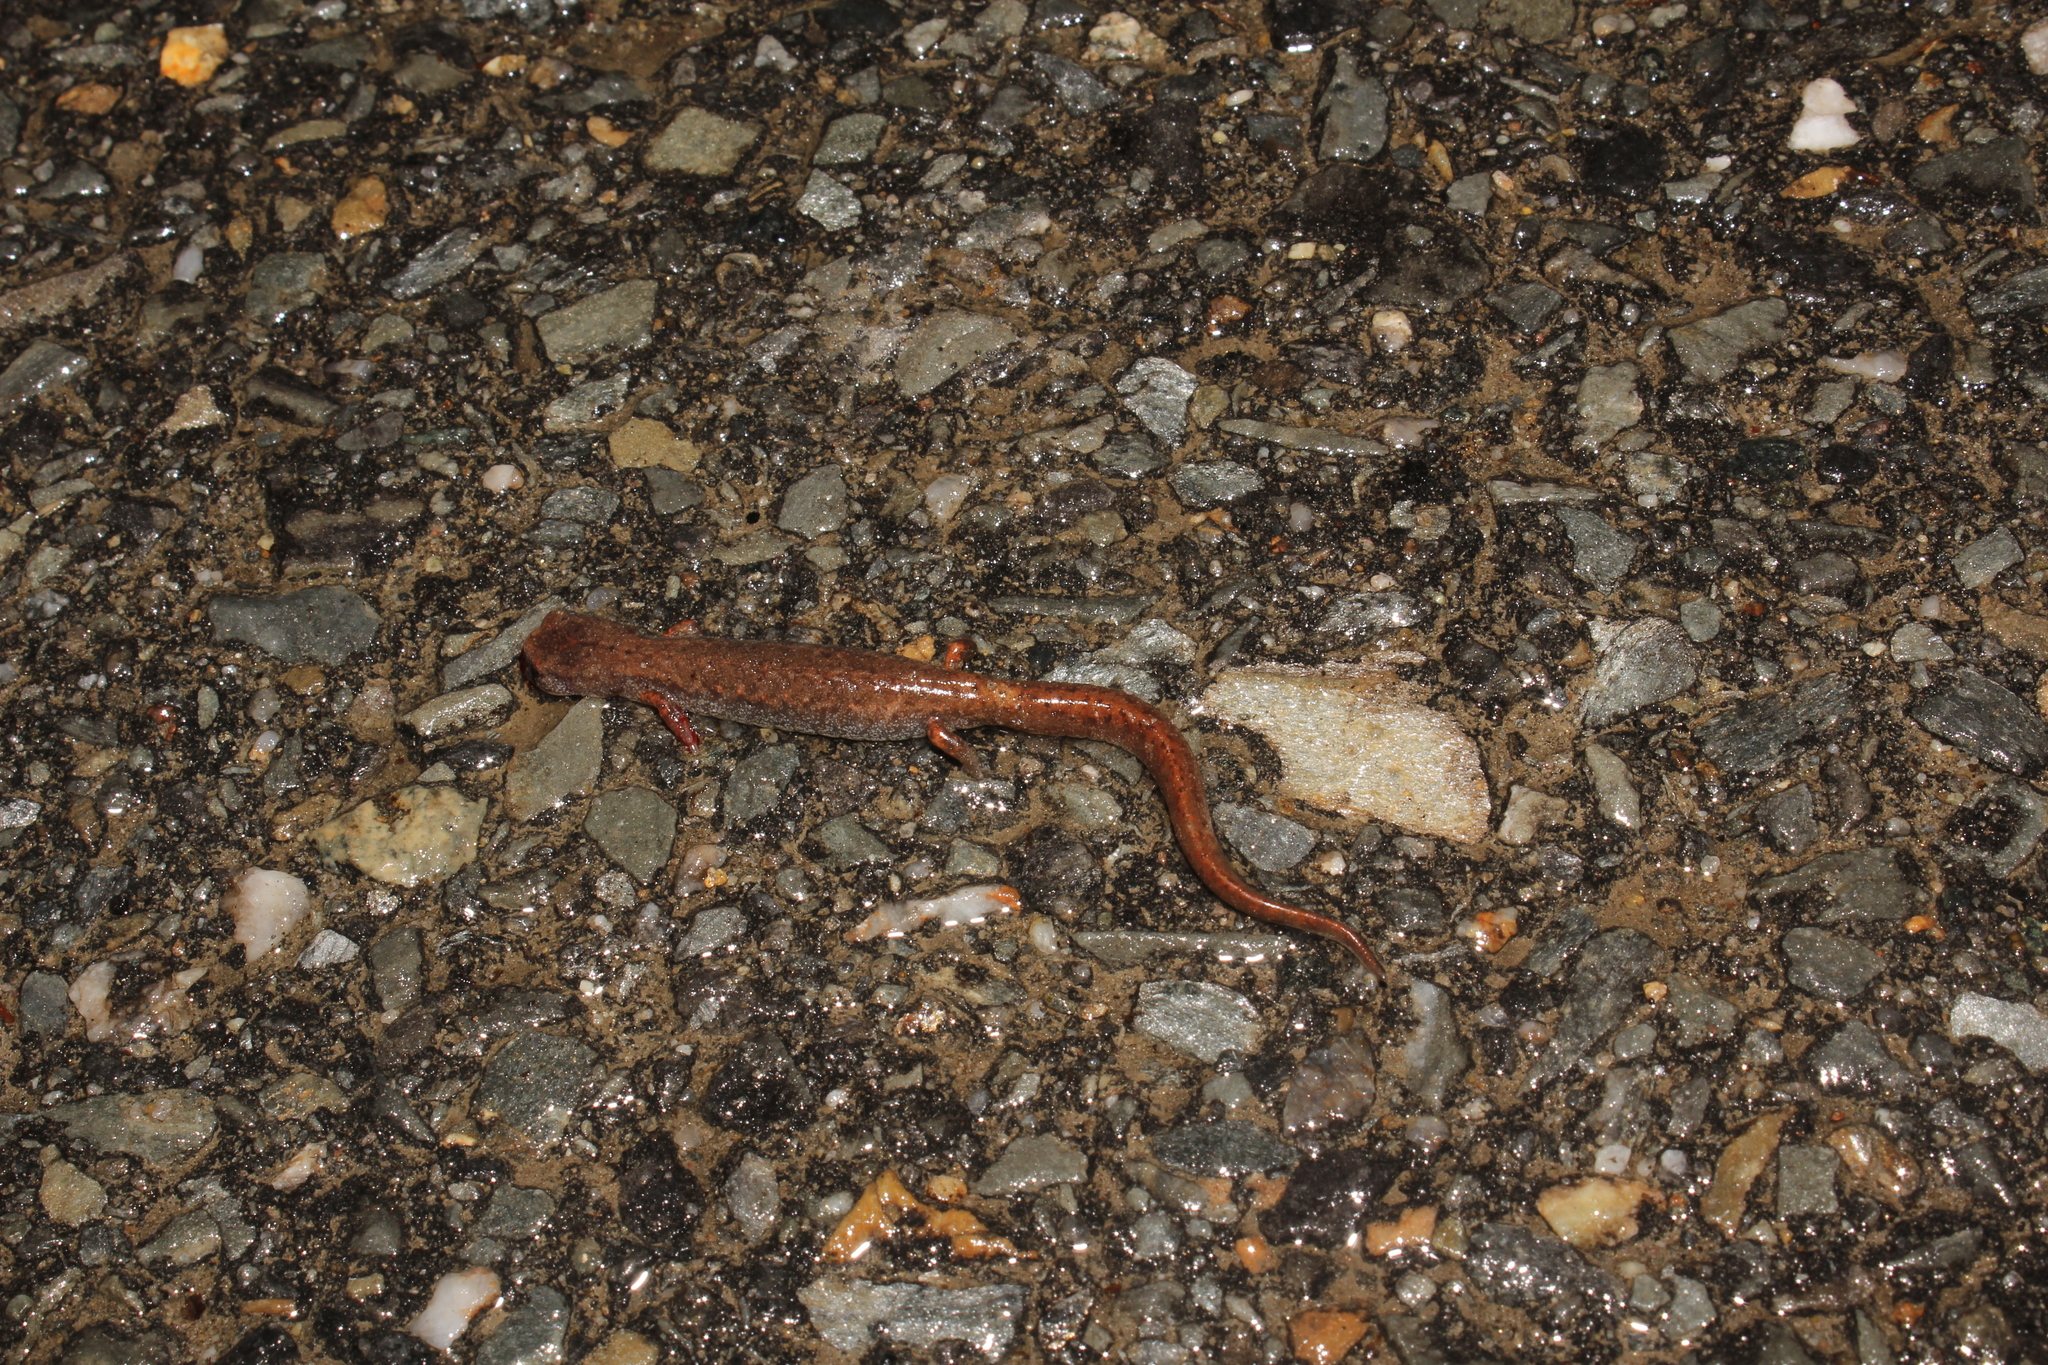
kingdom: Animalia
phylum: Chordata
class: Amphibia
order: Caudata
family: Plethodontidae
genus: Hemidactylium
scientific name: Hemidactylium scutatum
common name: Four-toed salamander
